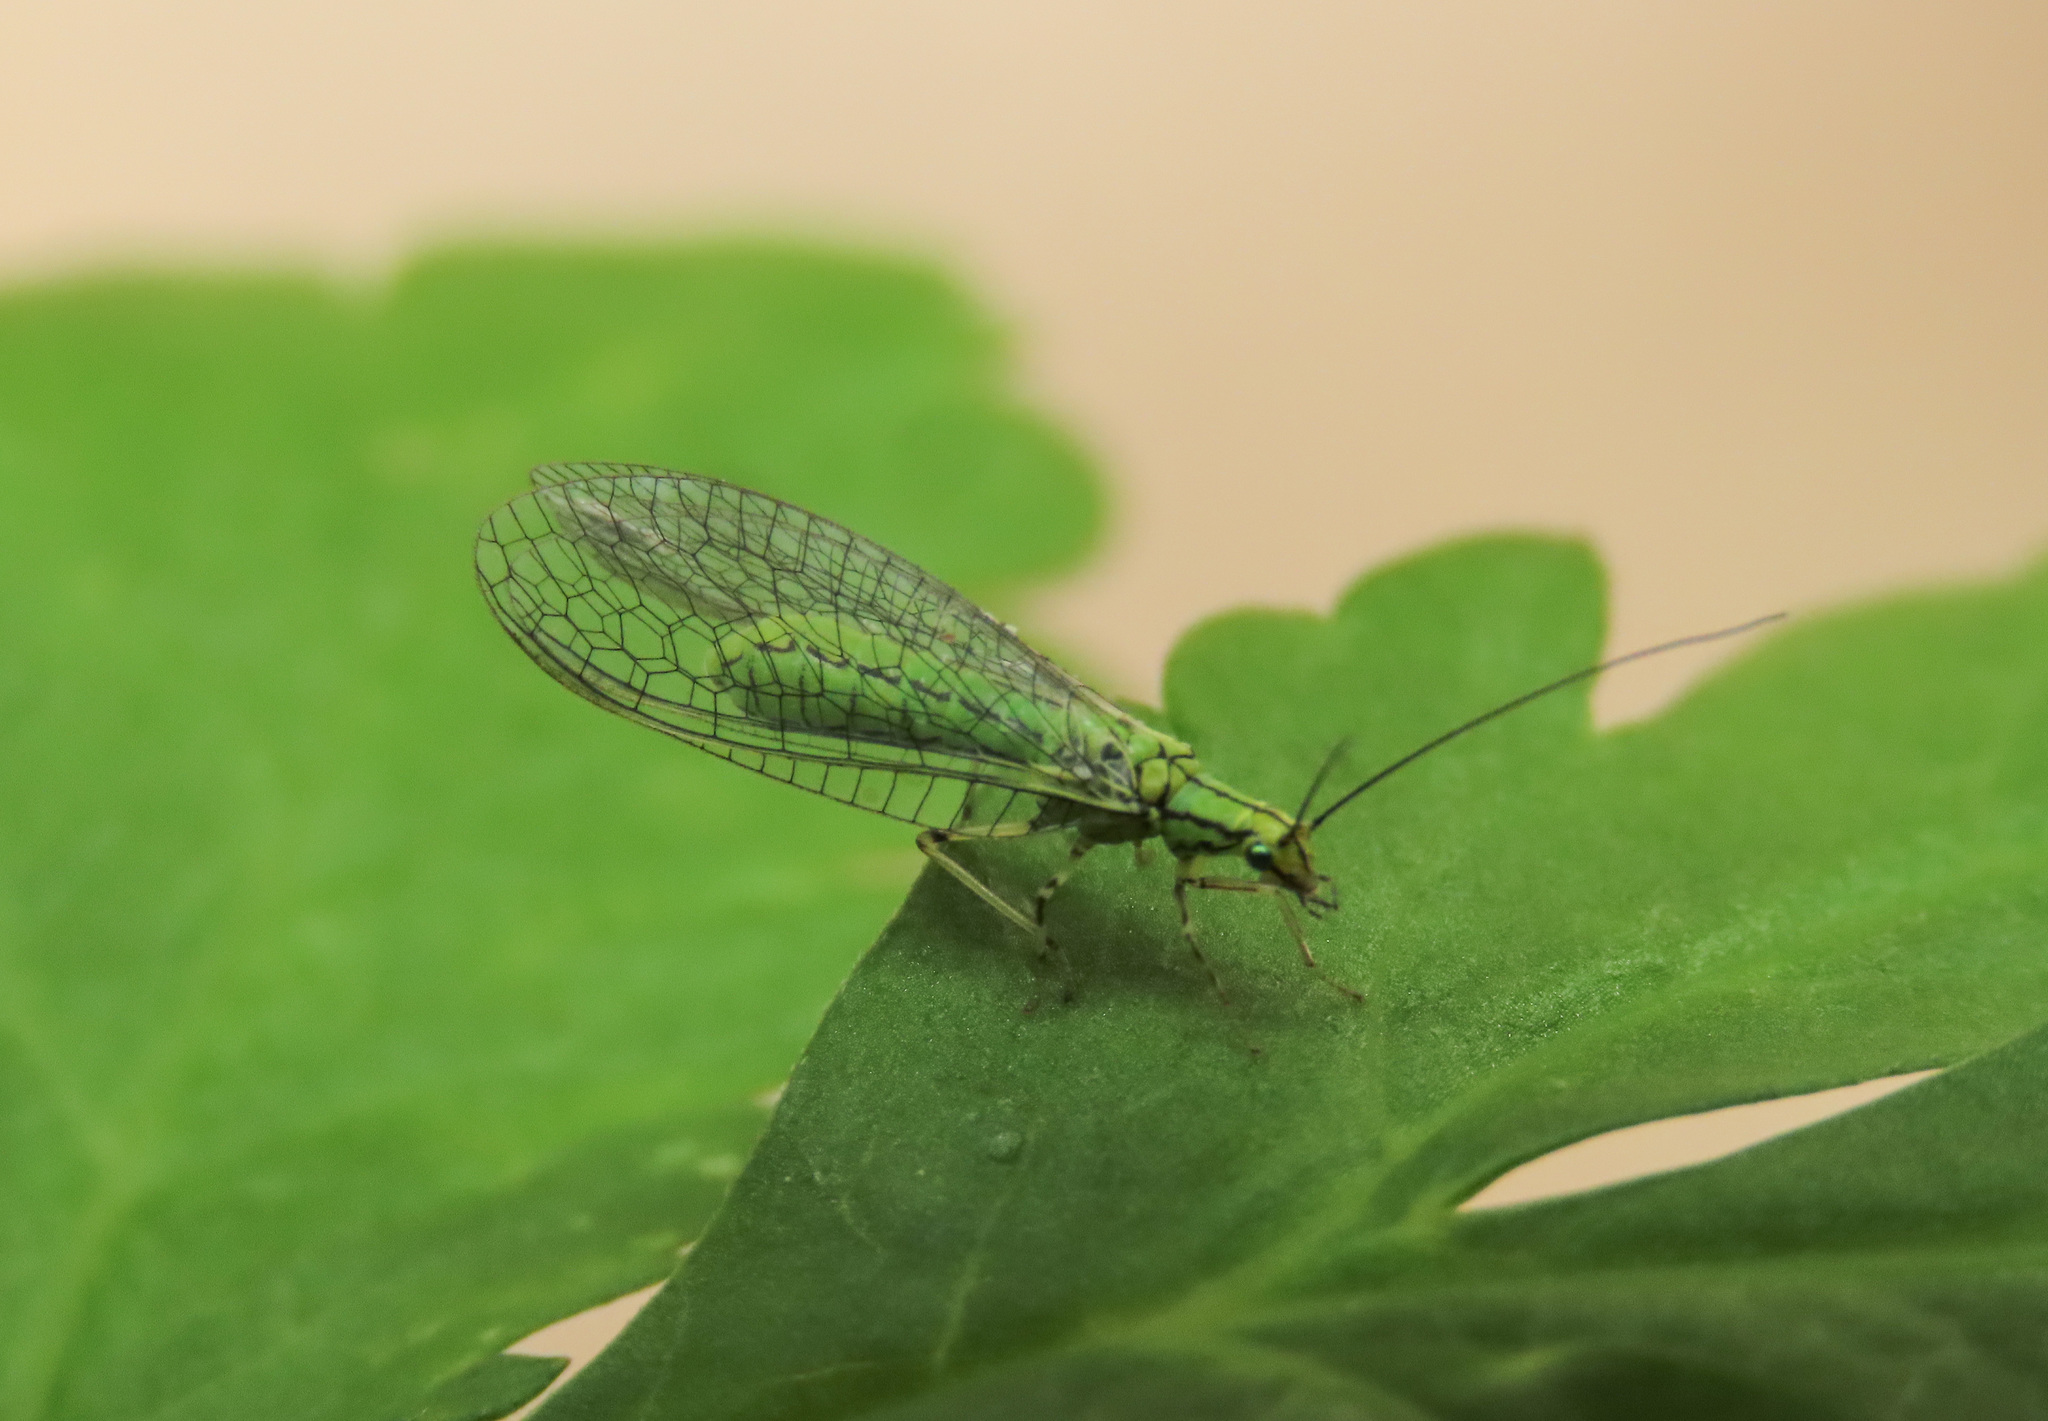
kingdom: Animalia
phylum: Arthropoda
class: Insecta
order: Neuroptera
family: Chrysopidae
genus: Hypochrysa
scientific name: Hypochrysa elegans
